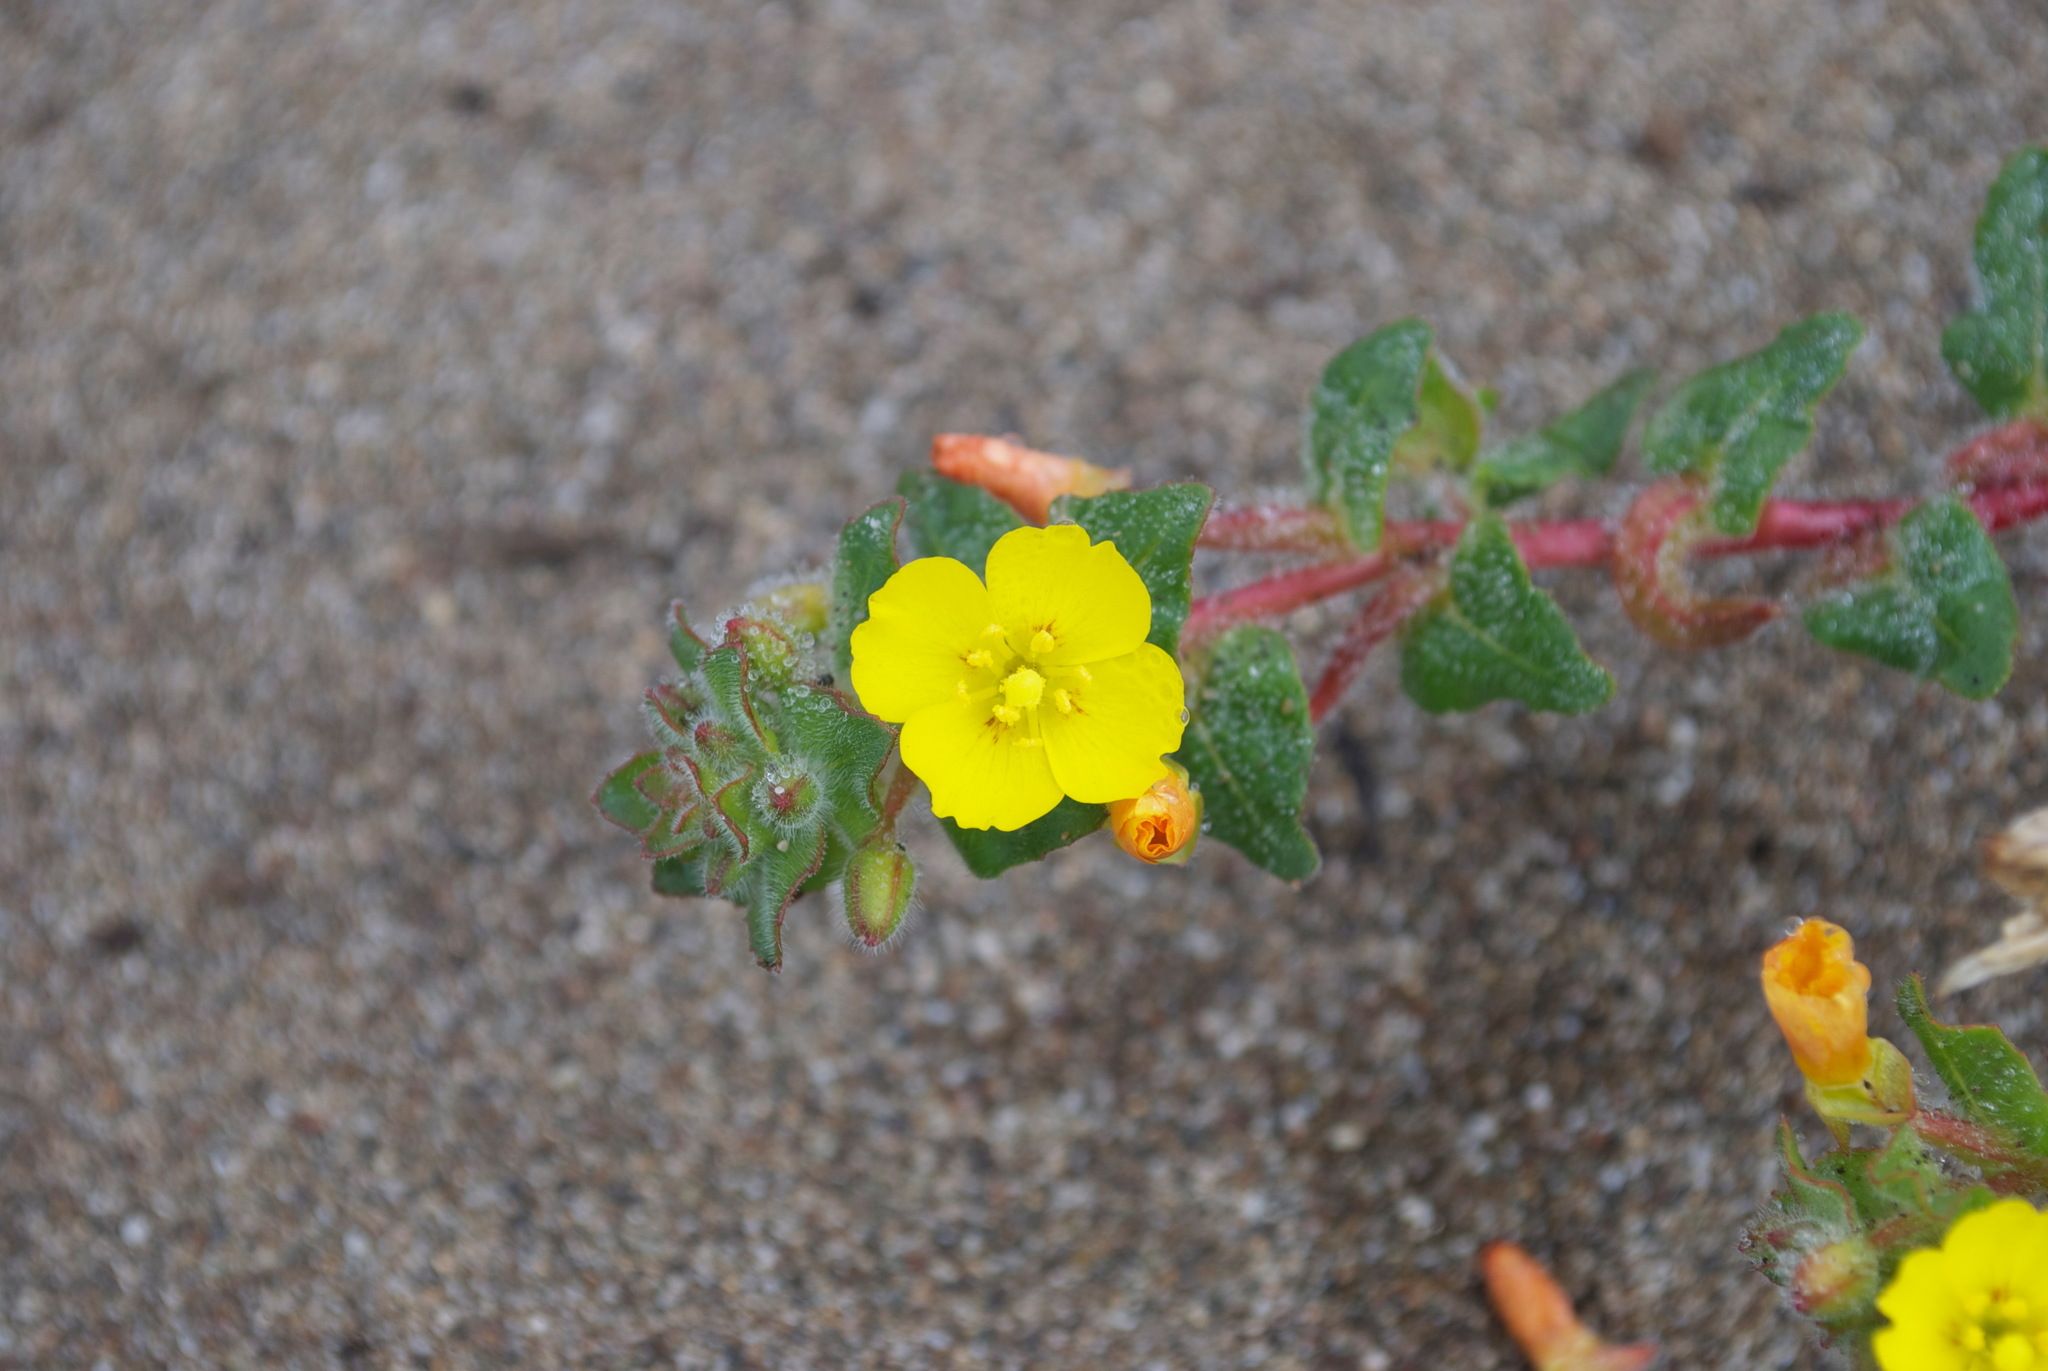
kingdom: Plantae
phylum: Tracheophyta
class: Magnoliopsida
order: Myrtales
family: Onagraceae
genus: Camissoniopsis
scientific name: Camissoniopsis cheiranthifolia
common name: Beach suncup
